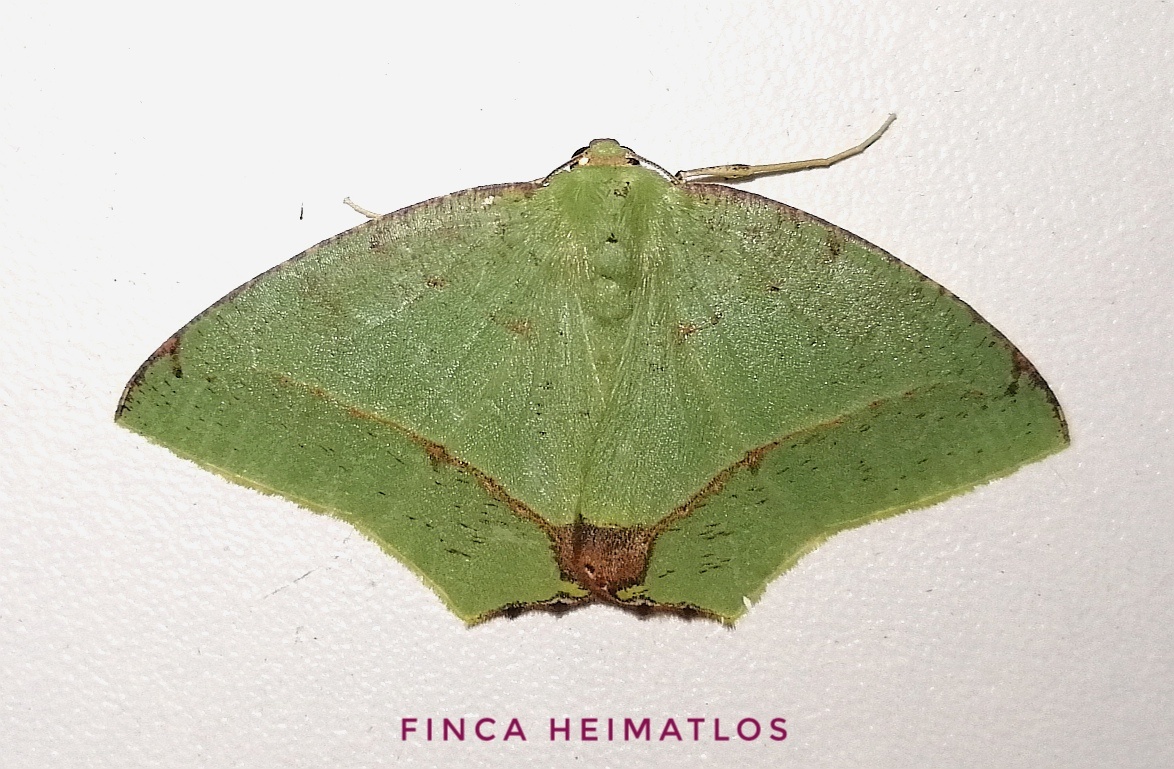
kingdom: Animalia
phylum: Arthropoda
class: Insecta
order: Lepidoptera
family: Geometridae
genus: Phyle
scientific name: Phyle transglauca
